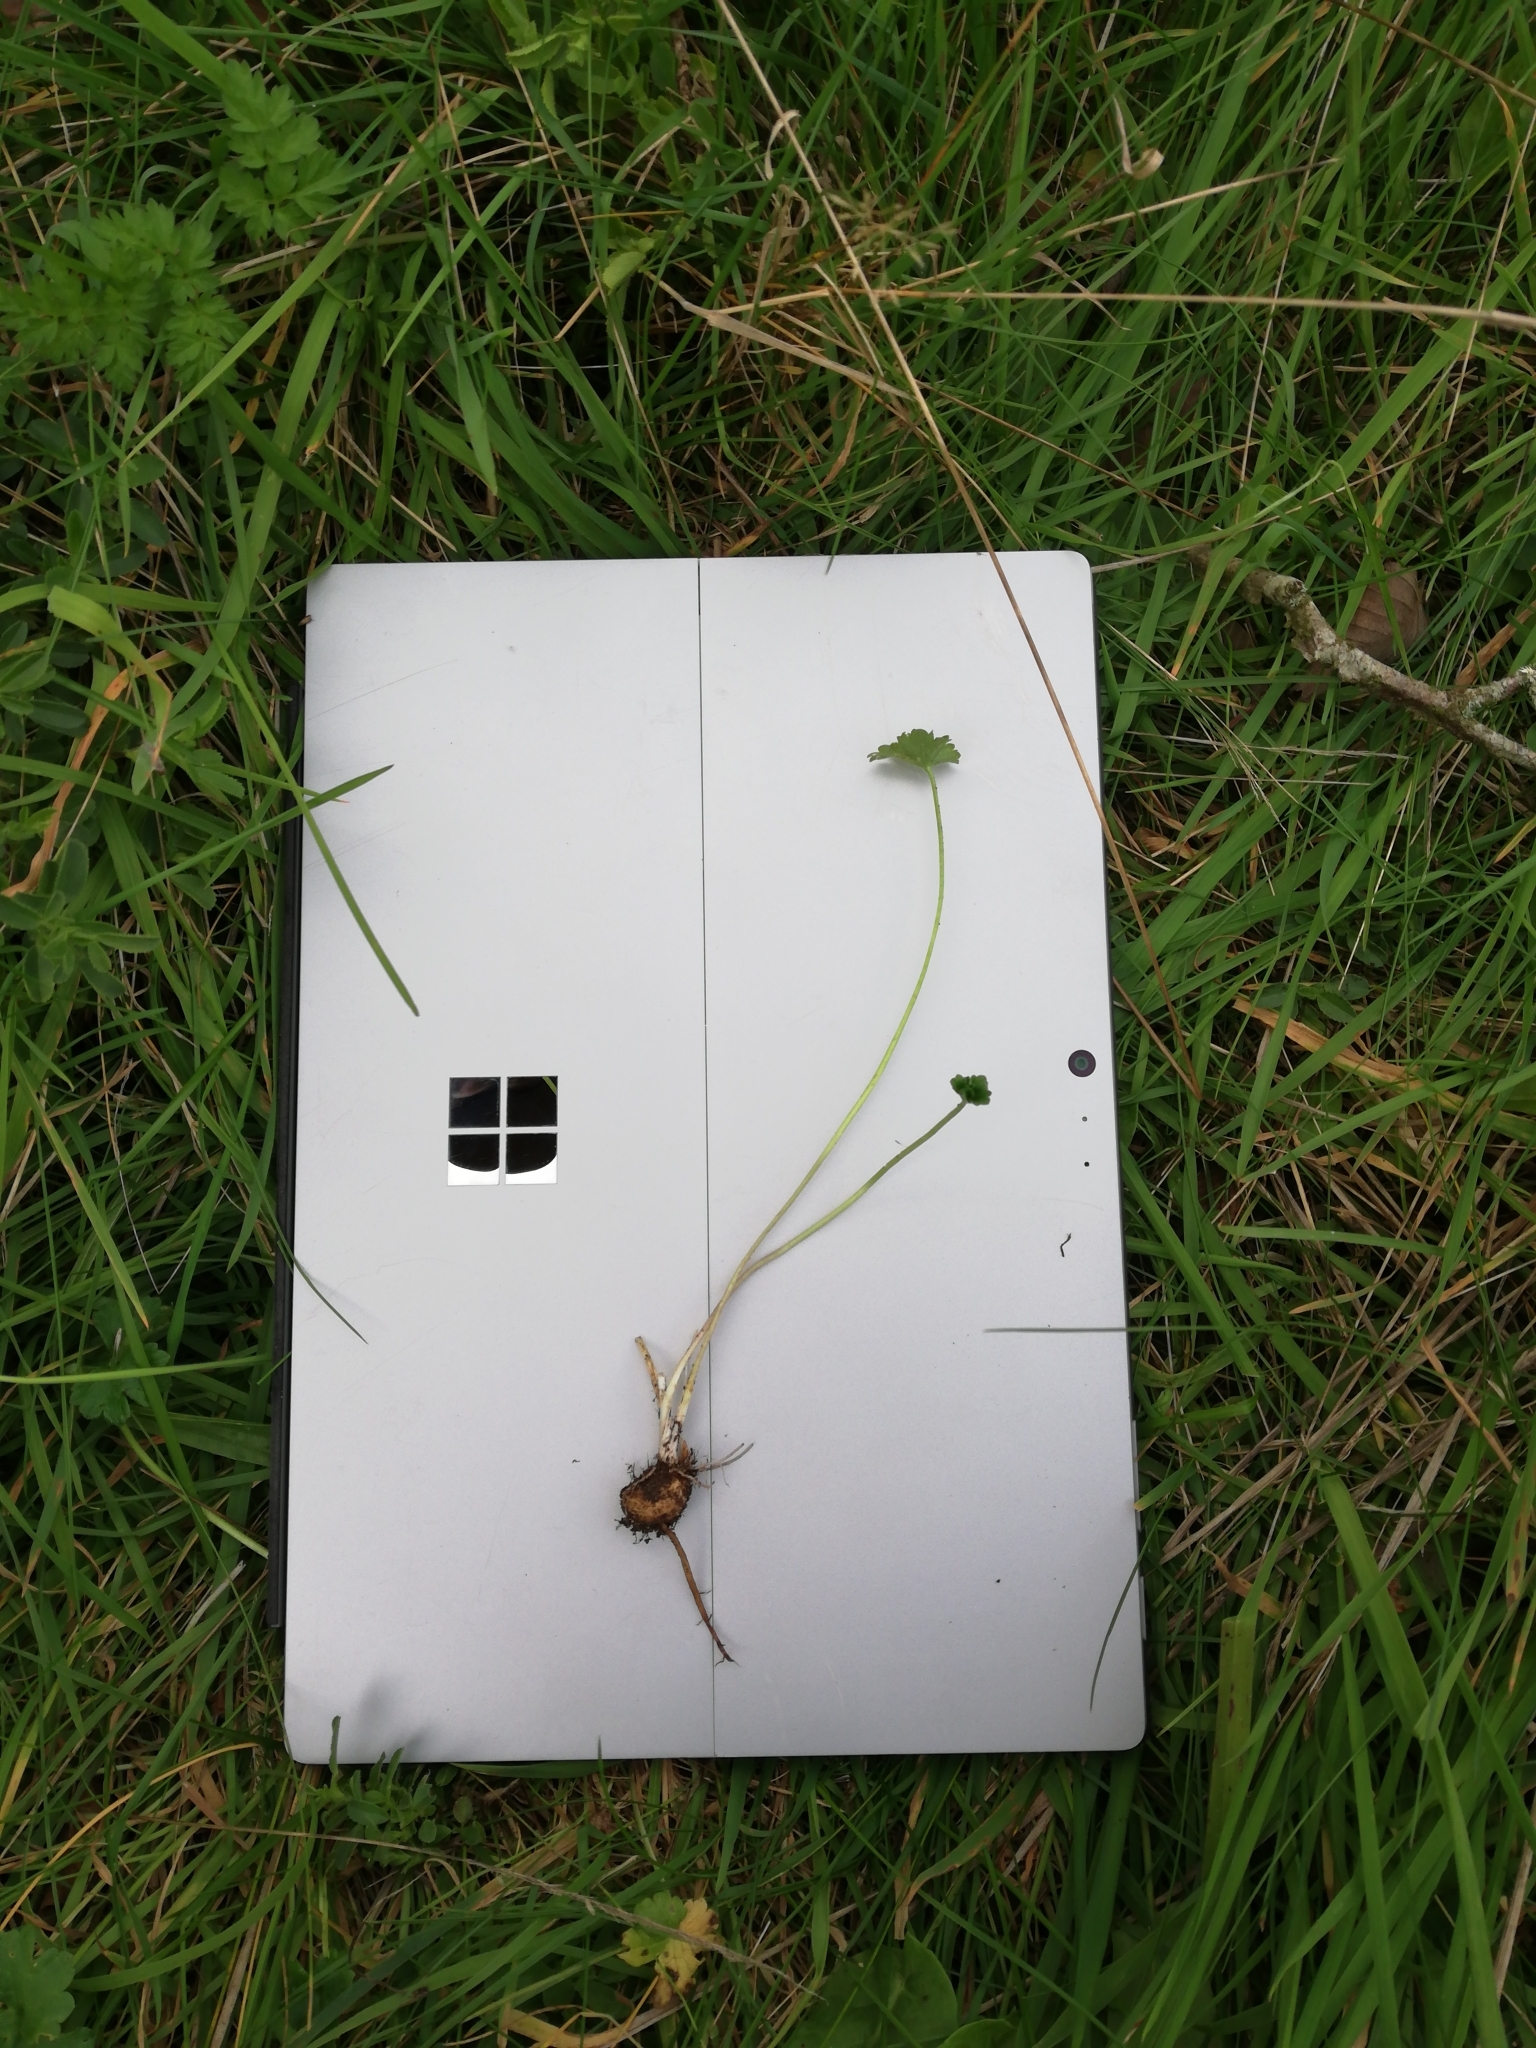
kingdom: Plantae
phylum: Tracheophyta
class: Magnoliopsida
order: Ranunculales
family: Ranunculaceae
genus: Ranunculus
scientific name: Ranunculus bulbosus
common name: Bulbous buttercup
